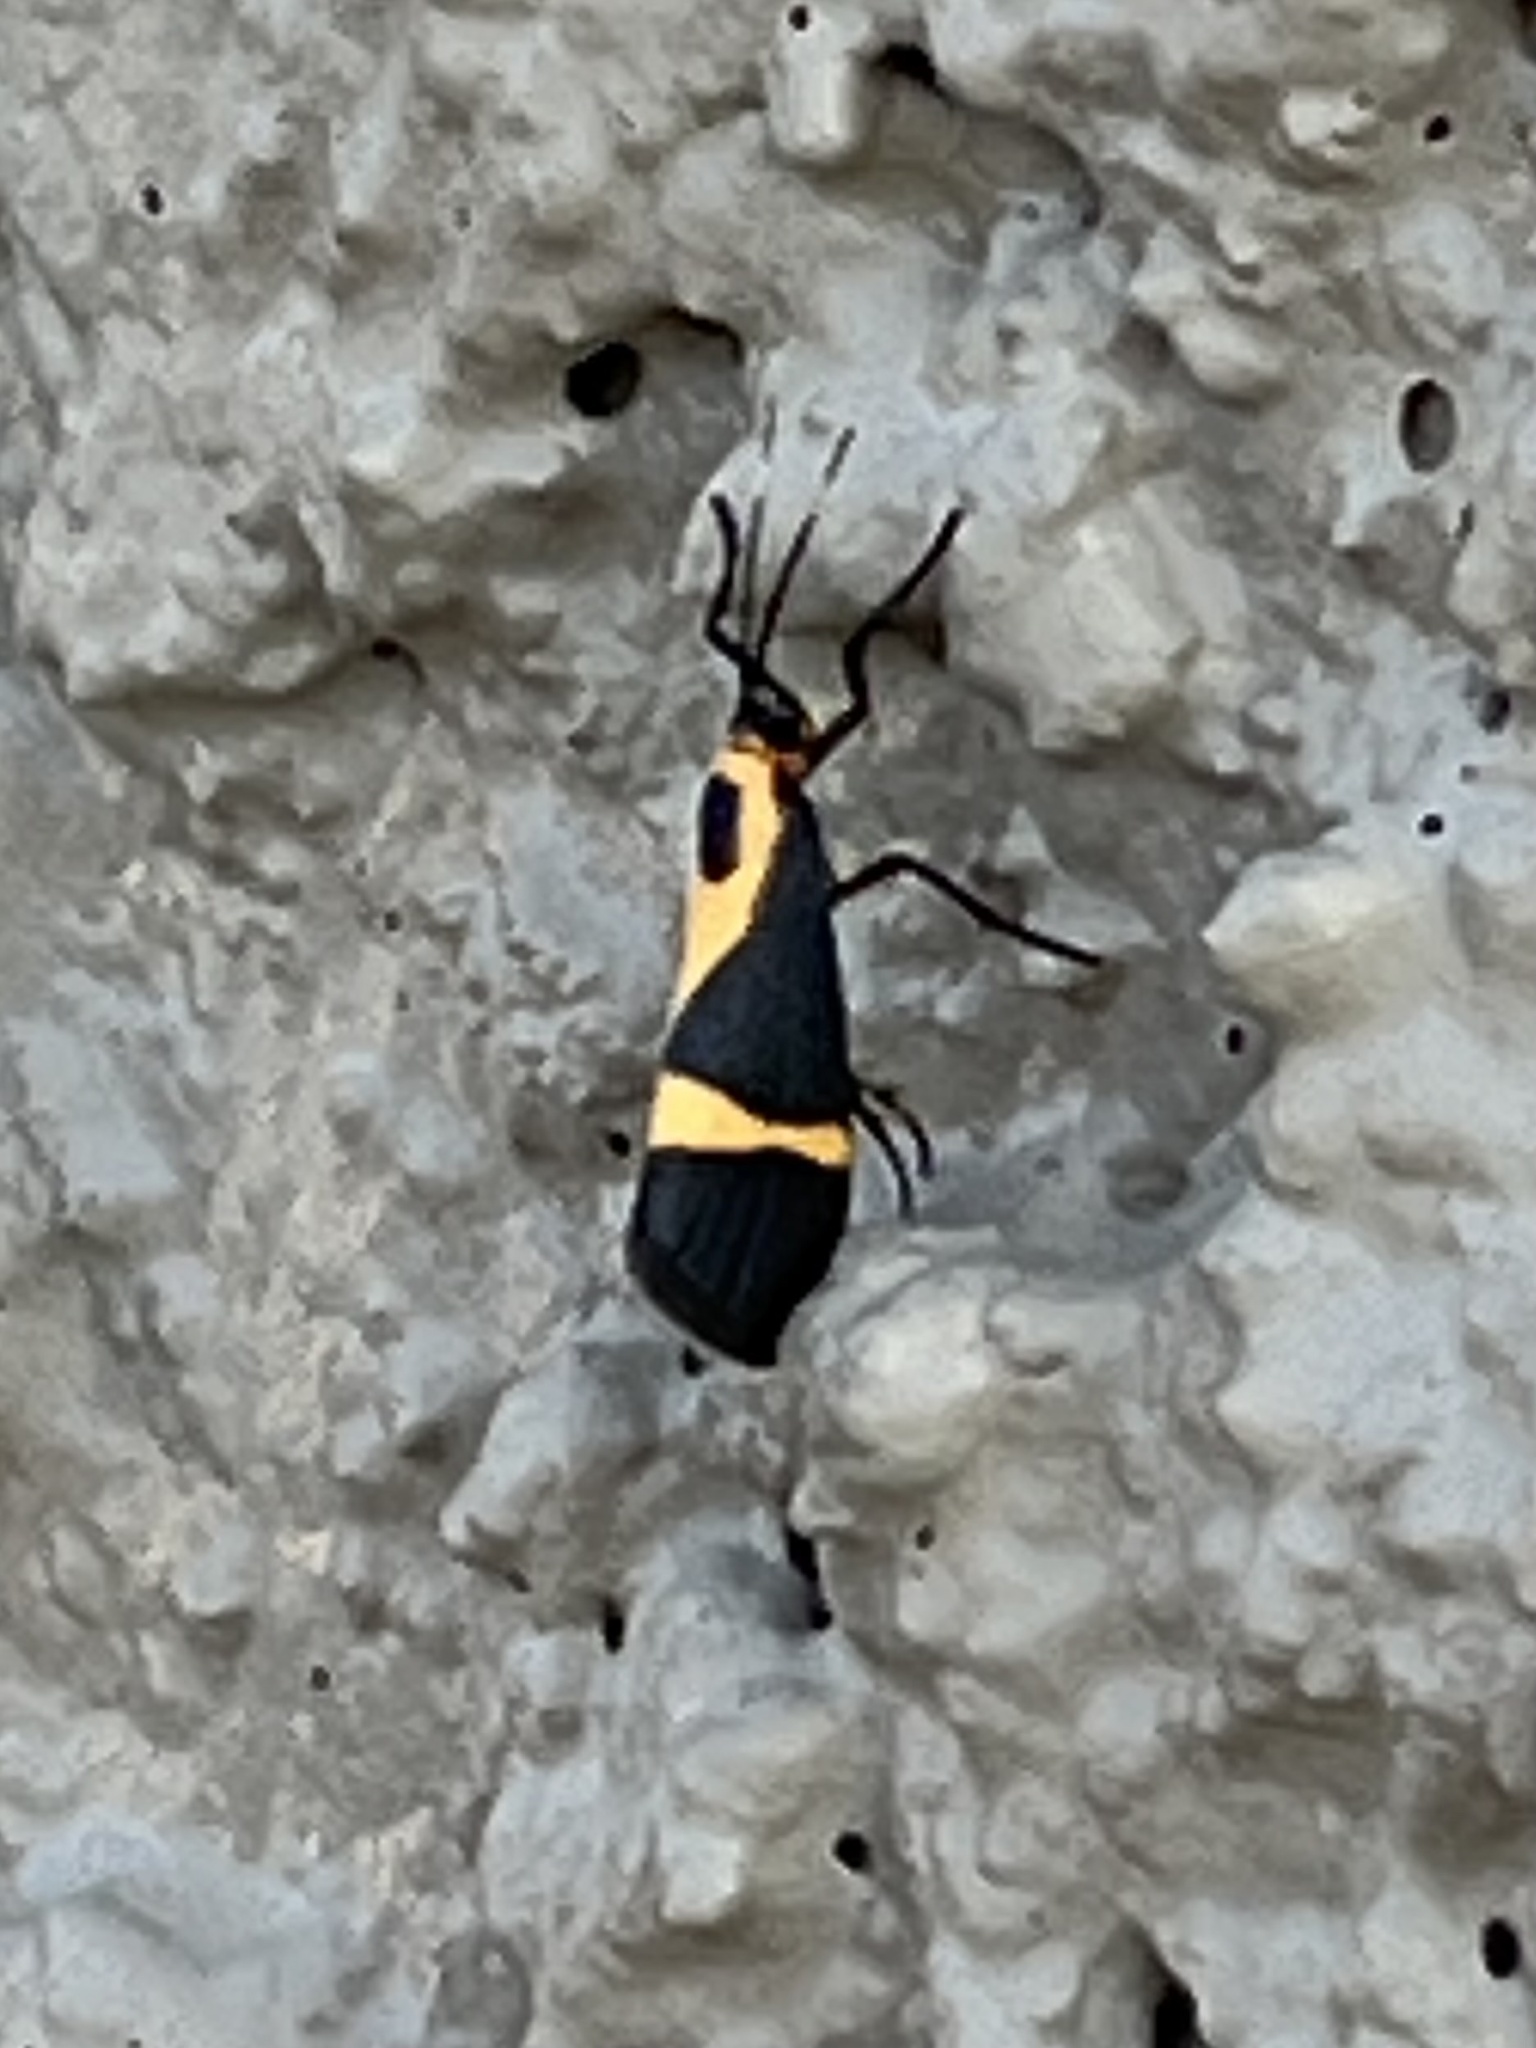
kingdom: Animalia
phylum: Arthropoda
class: Insecta
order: Lepidoptera
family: Erebidae
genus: Cisthene
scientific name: Cisthene tenuifascia
